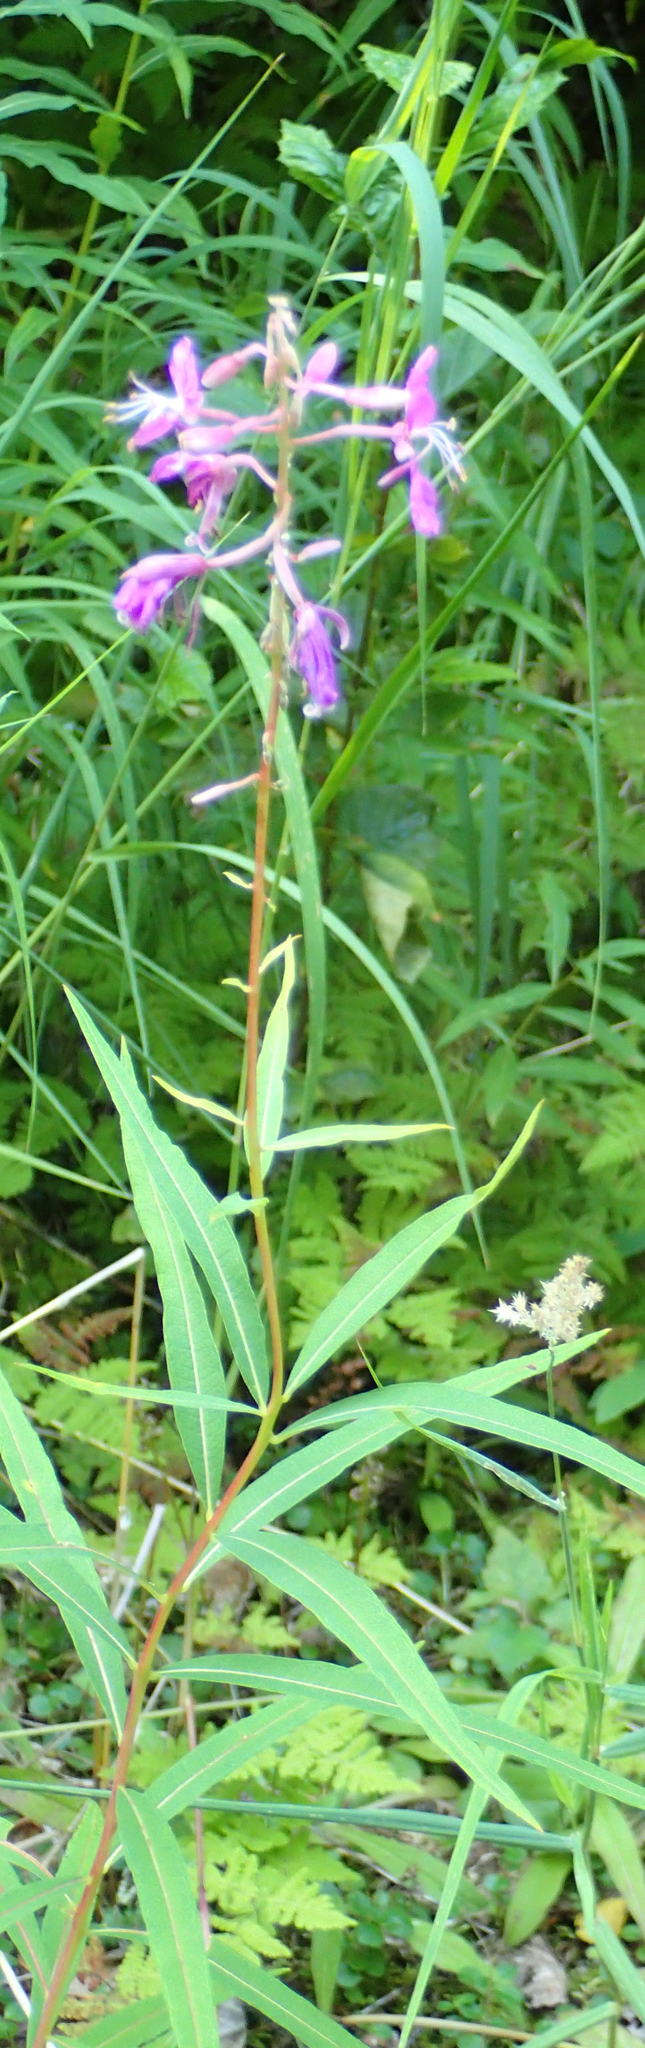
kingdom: Plantae
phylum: Tracheophyta
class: Magnoliopsida
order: Myrtales
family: Onagraceae
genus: Chamaenerion
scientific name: Chamaenerion angustifolium
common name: Fireweed
